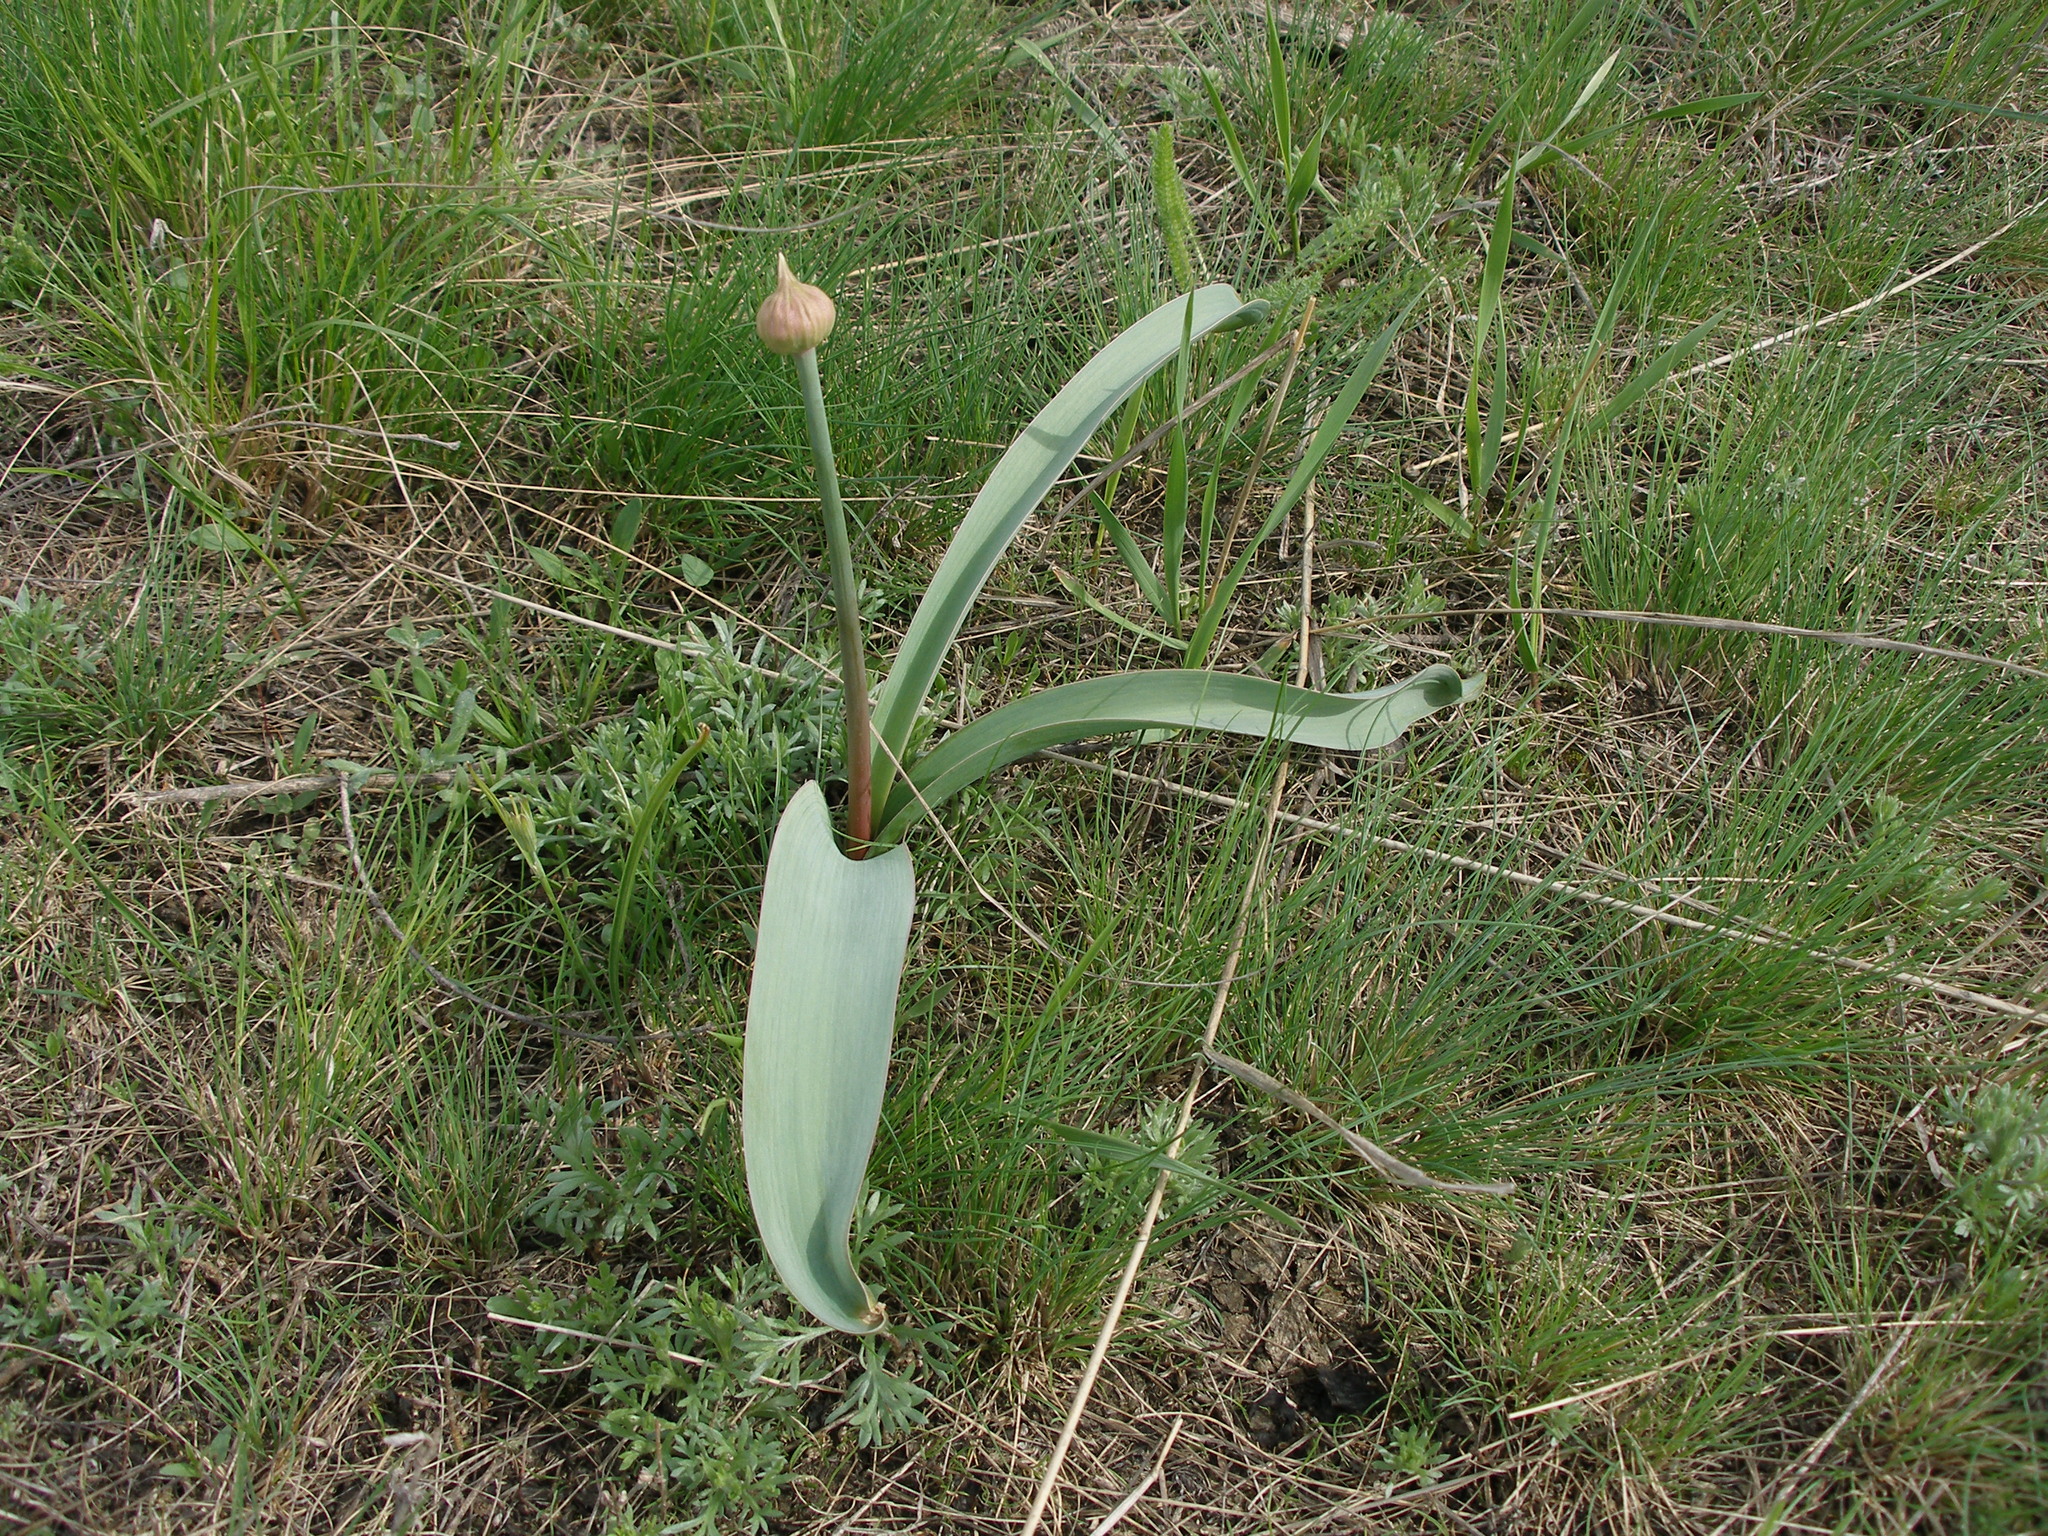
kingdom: Plantae
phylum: Tracheophyta
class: Liliopsida
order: Asparagales
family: Amaryllidaceae
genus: Allium
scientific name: Allium tulipifolium
